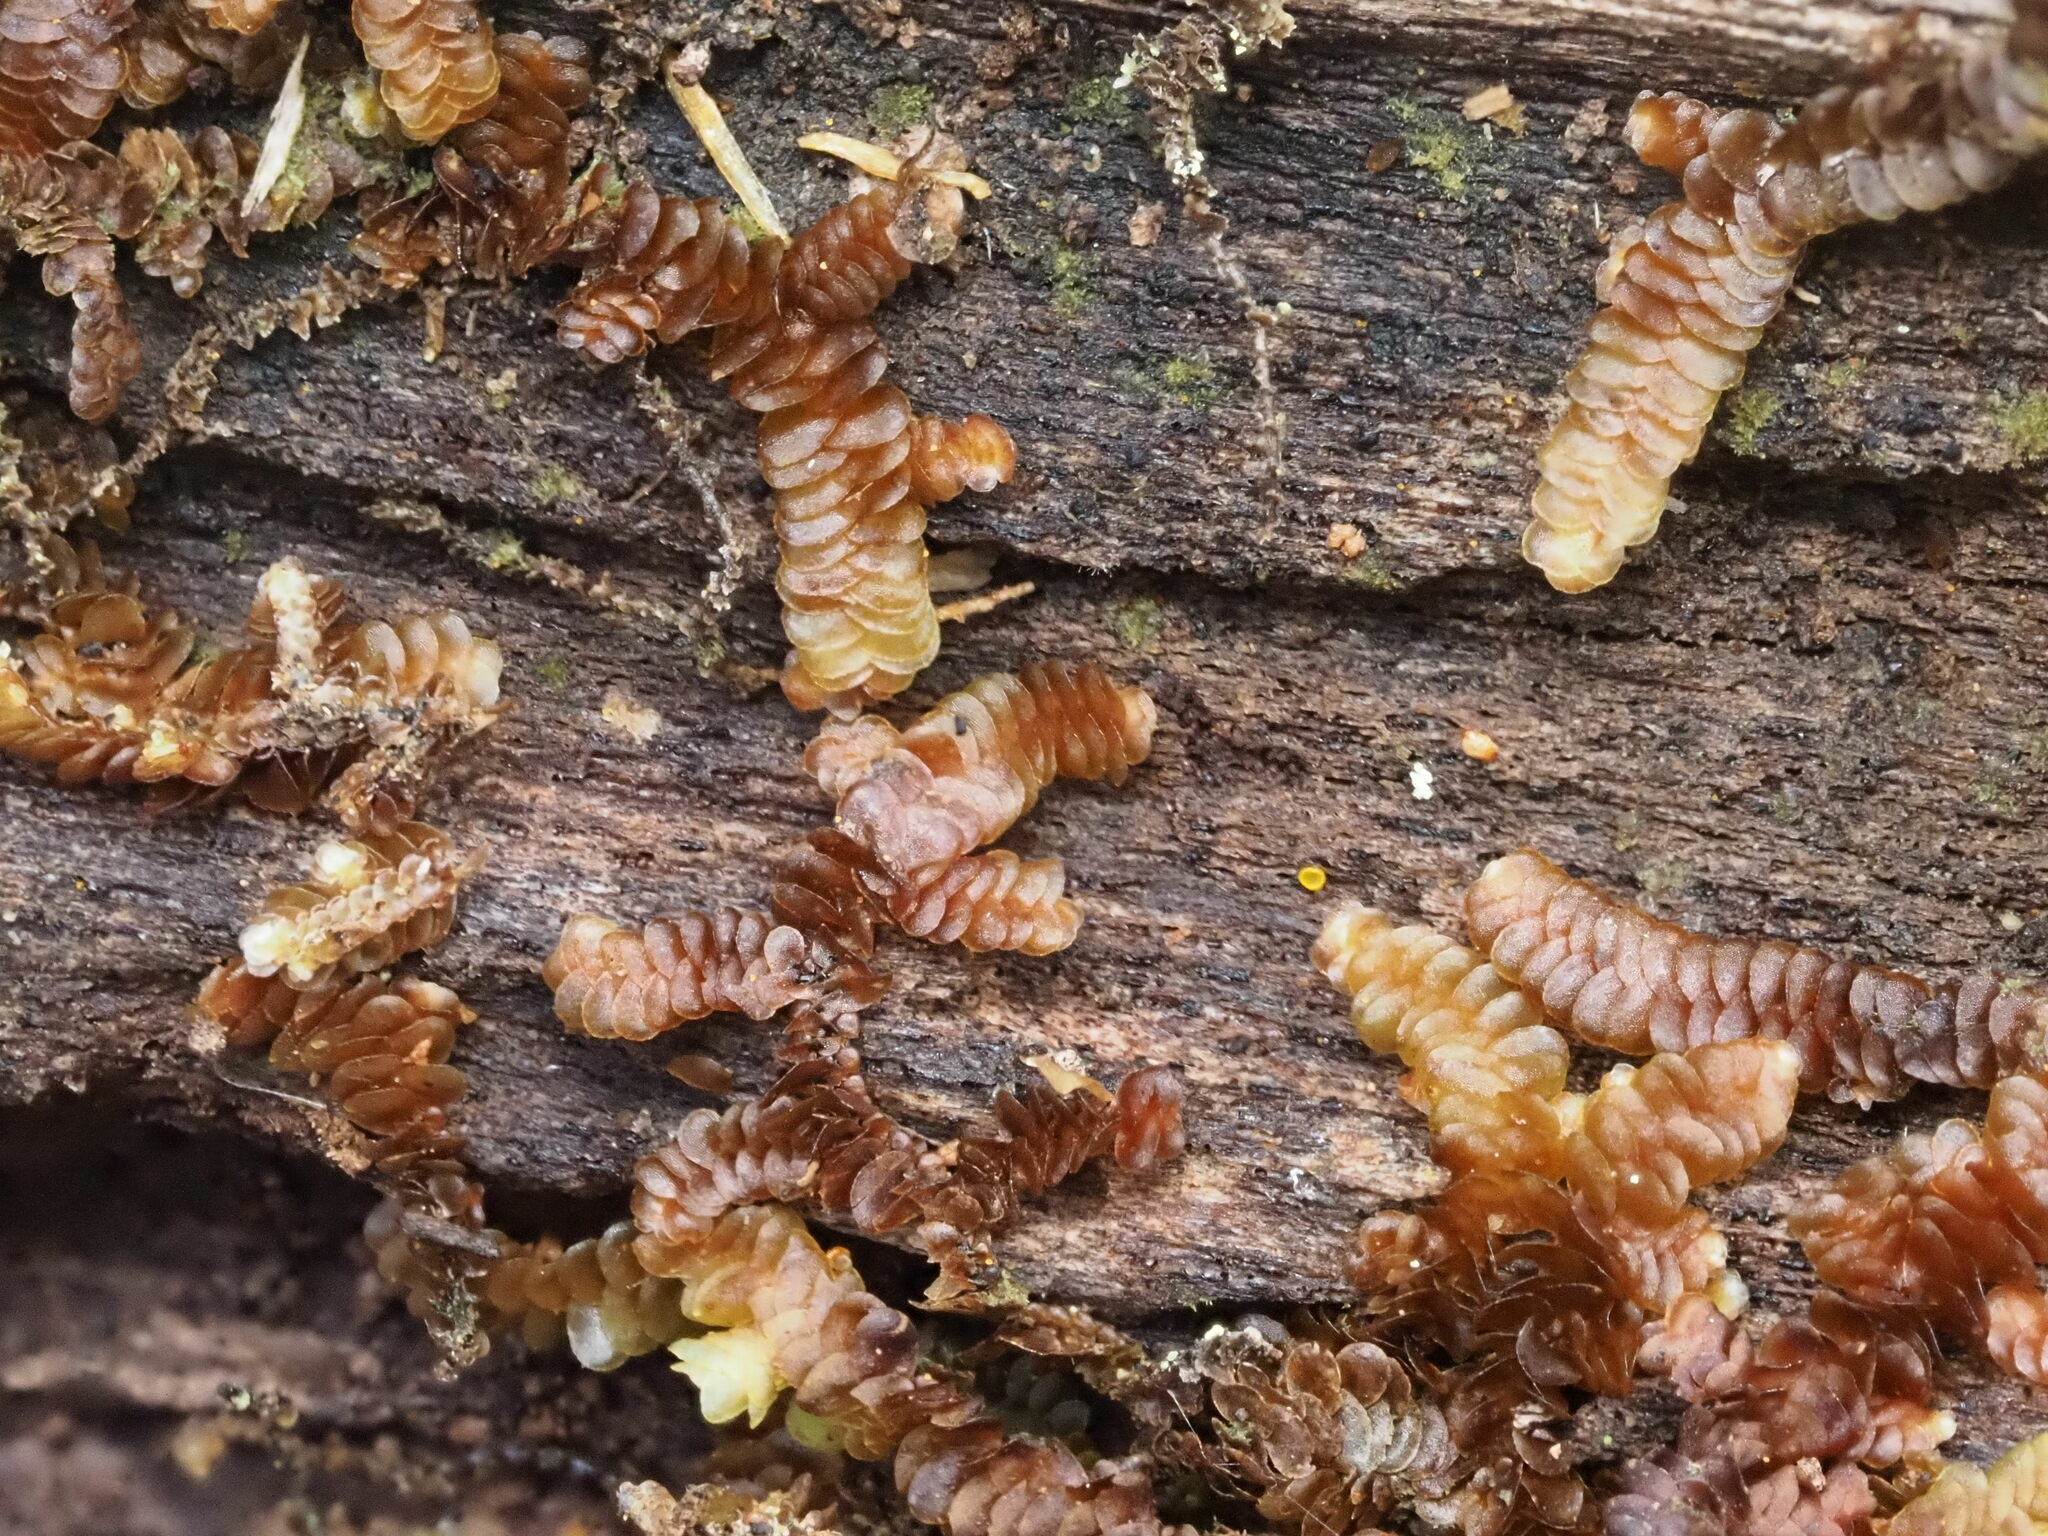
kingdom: Plantae
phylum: Marchantiophyta
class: Jungermanniopsida
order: Porellales
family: Frullaniaceae
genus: Frullania
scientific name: Frullania sandvicensis
